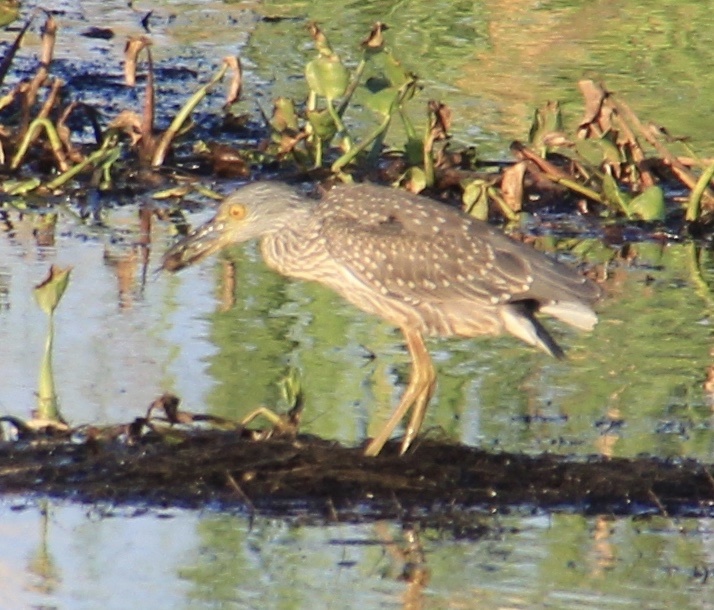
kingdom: Animalia
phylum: Chordata
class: Aves
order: Pelecaniformes
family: Ardeidae
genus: Nyctanassa
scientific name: Nyctanassa violacea
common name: Yellow-crowned night heron
